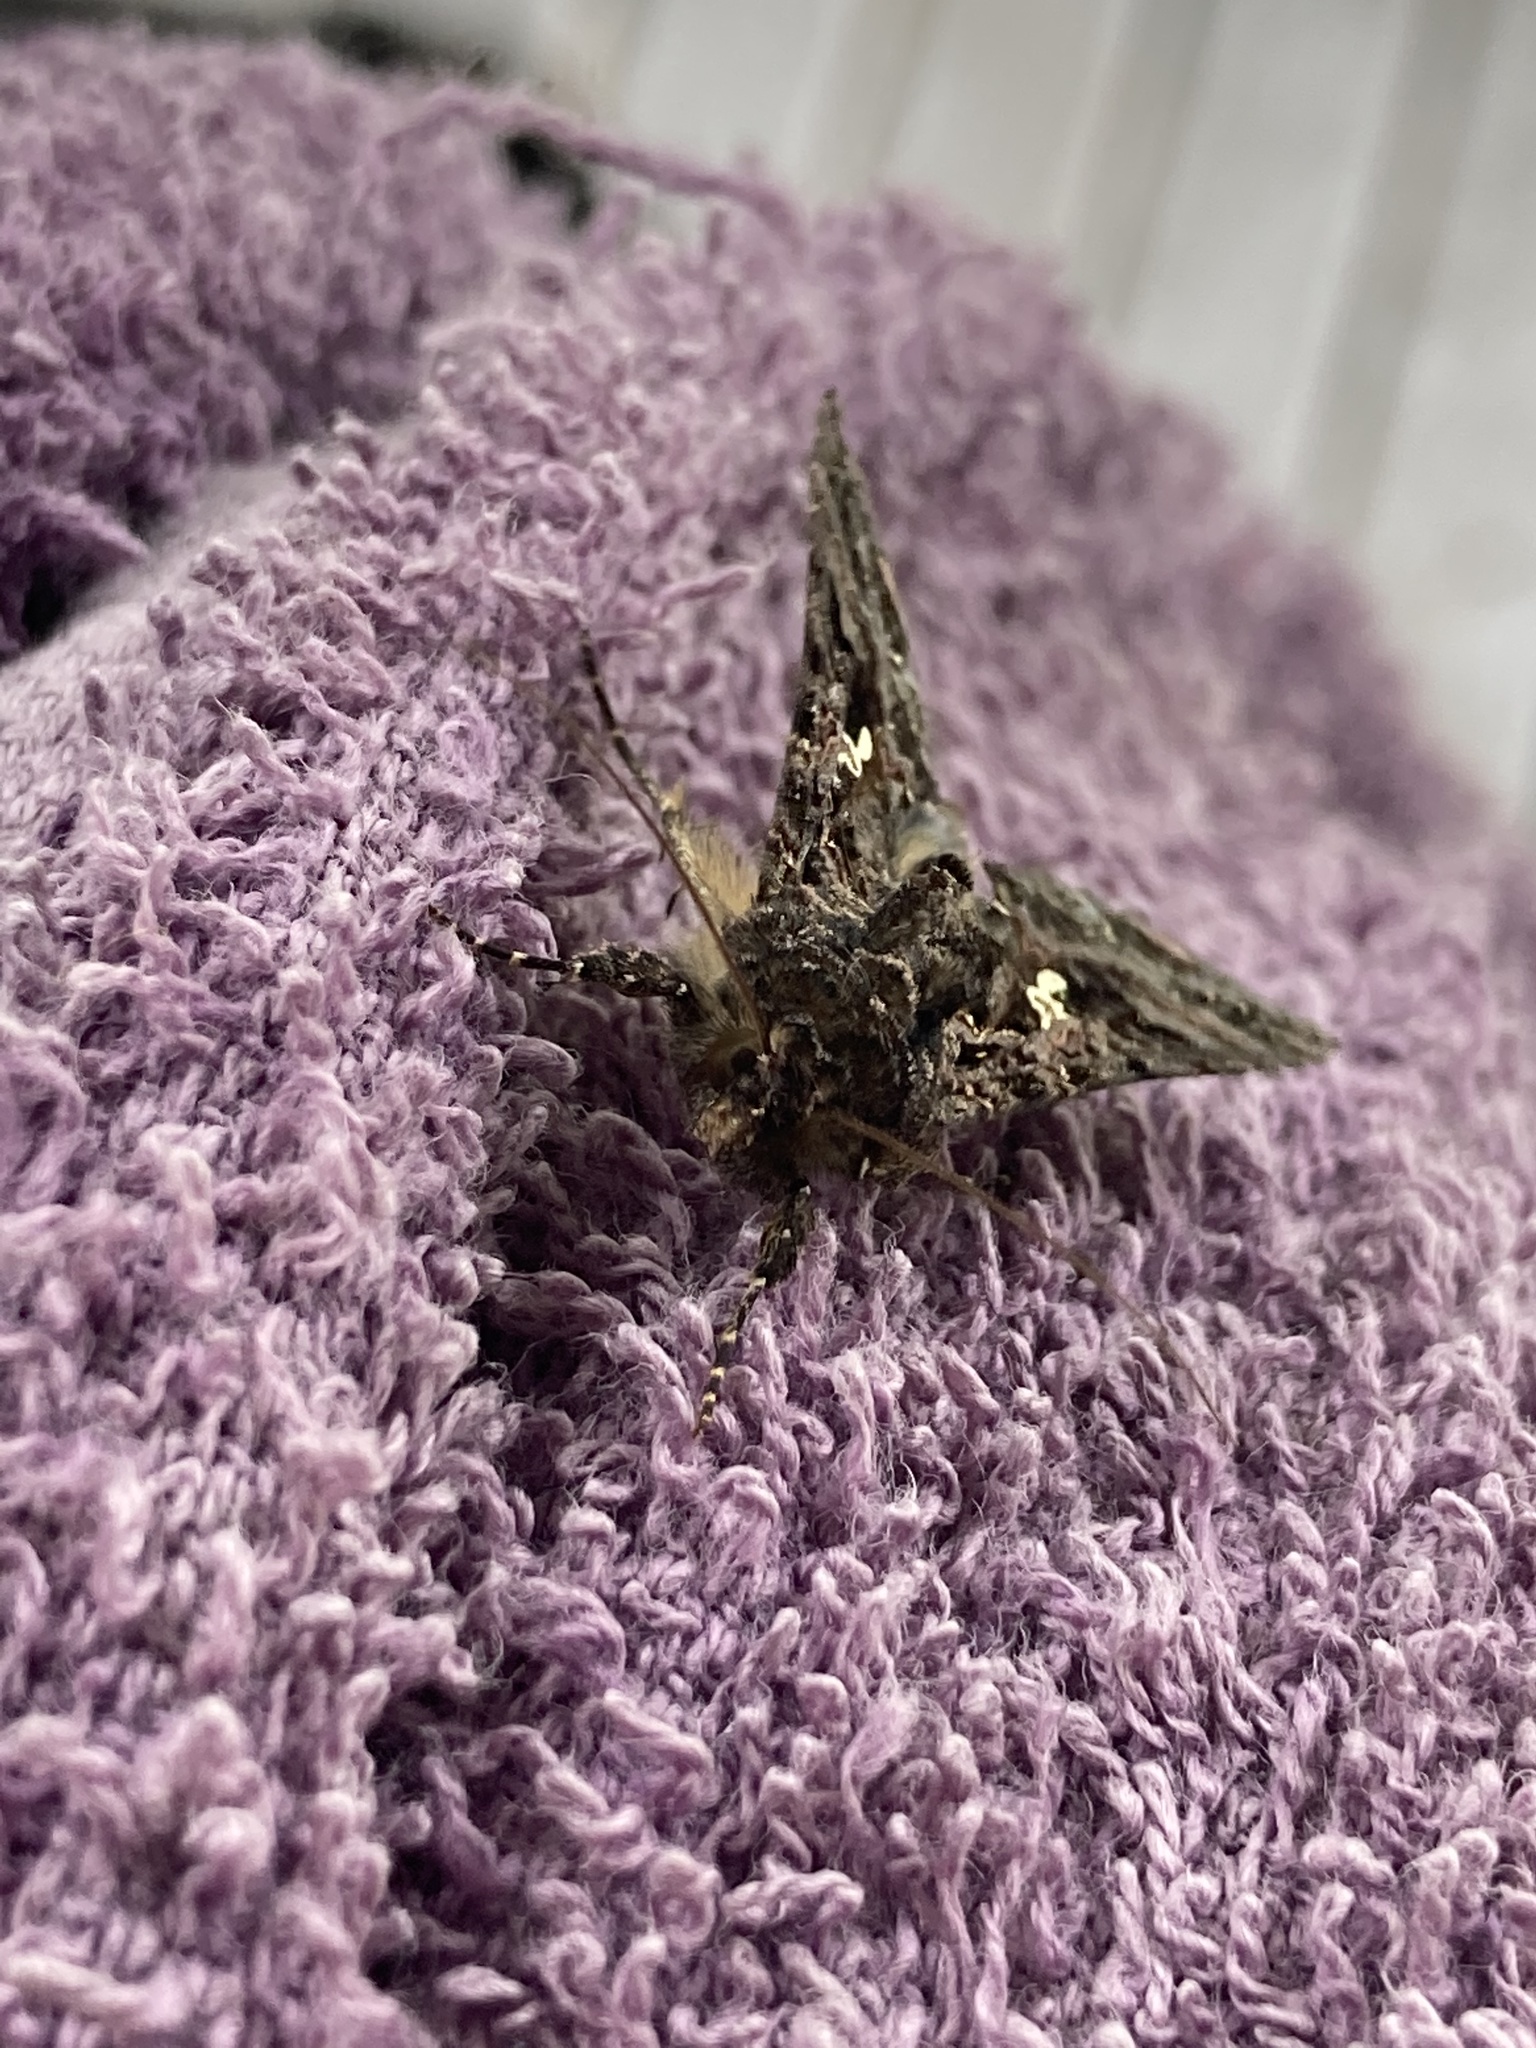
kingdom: Animalia
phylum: Arthropoda
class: Insecta
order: Lepidoptera
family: Noctuidae
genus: Ctenoplusia
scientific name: Ctenoplusia limbirena
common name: Scar bank gem
